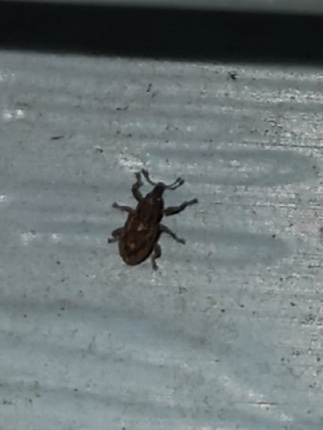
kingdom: Animalia
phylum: Arthropoda
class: Insecta
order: Coleoptera
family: Brachyceridae
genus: Endalus
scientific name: Endalus aeratus
